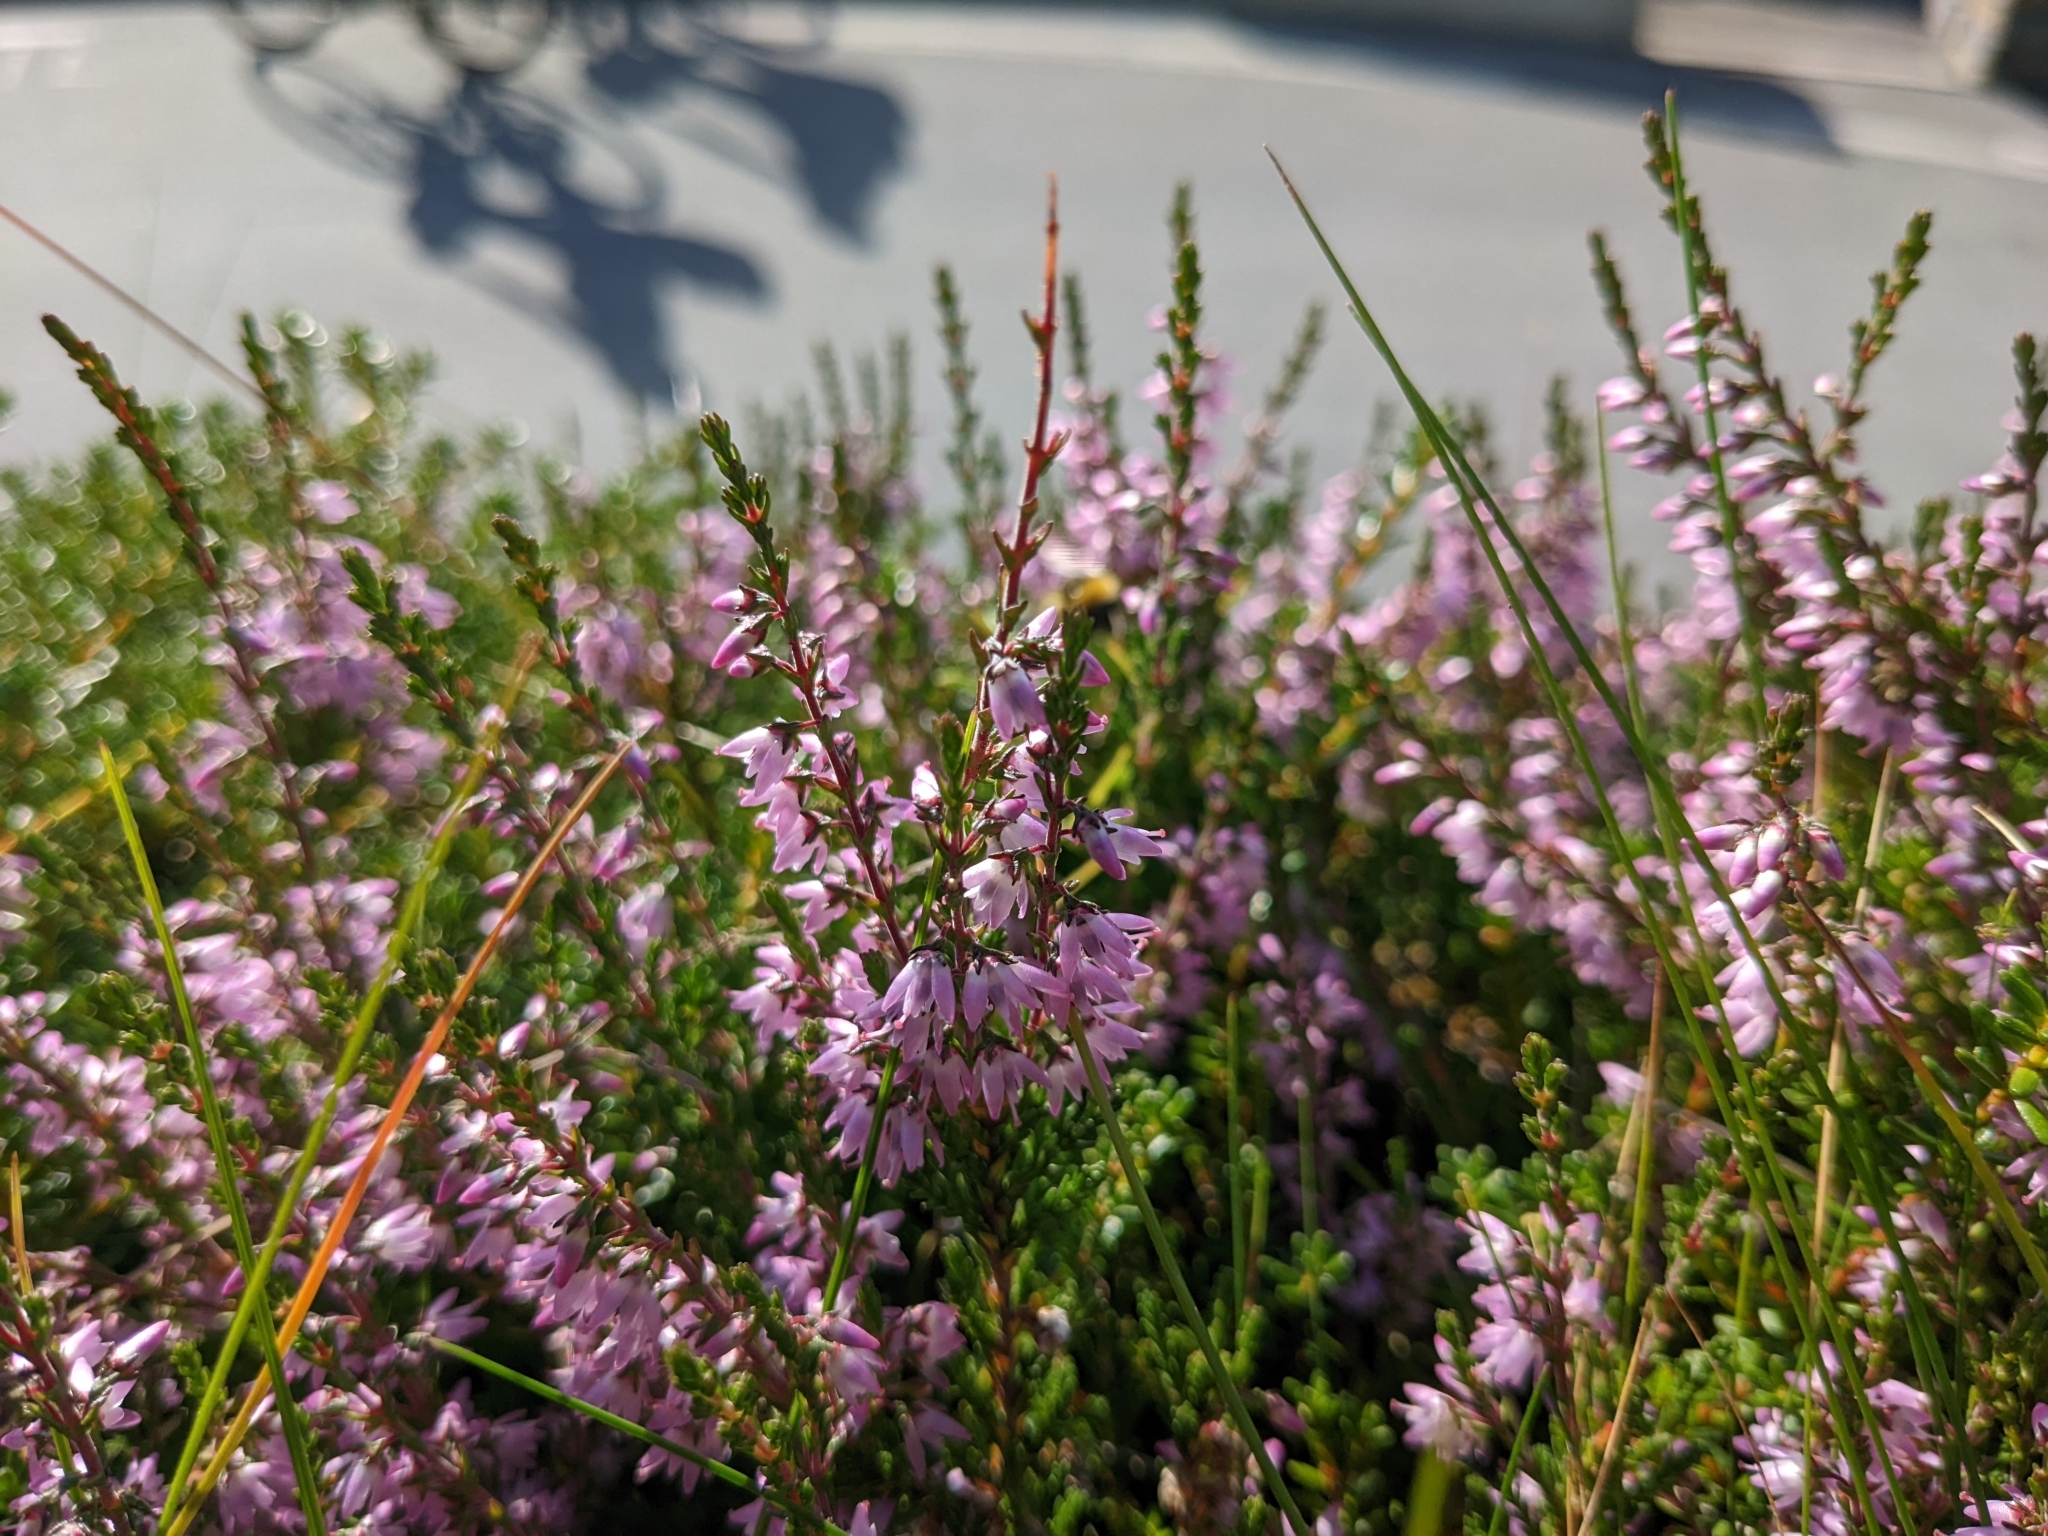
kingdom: Animalia
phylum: Arthropoda
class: Insecta
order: Hymenoptera
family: Apidae
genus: Bombus
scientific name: Bombus
